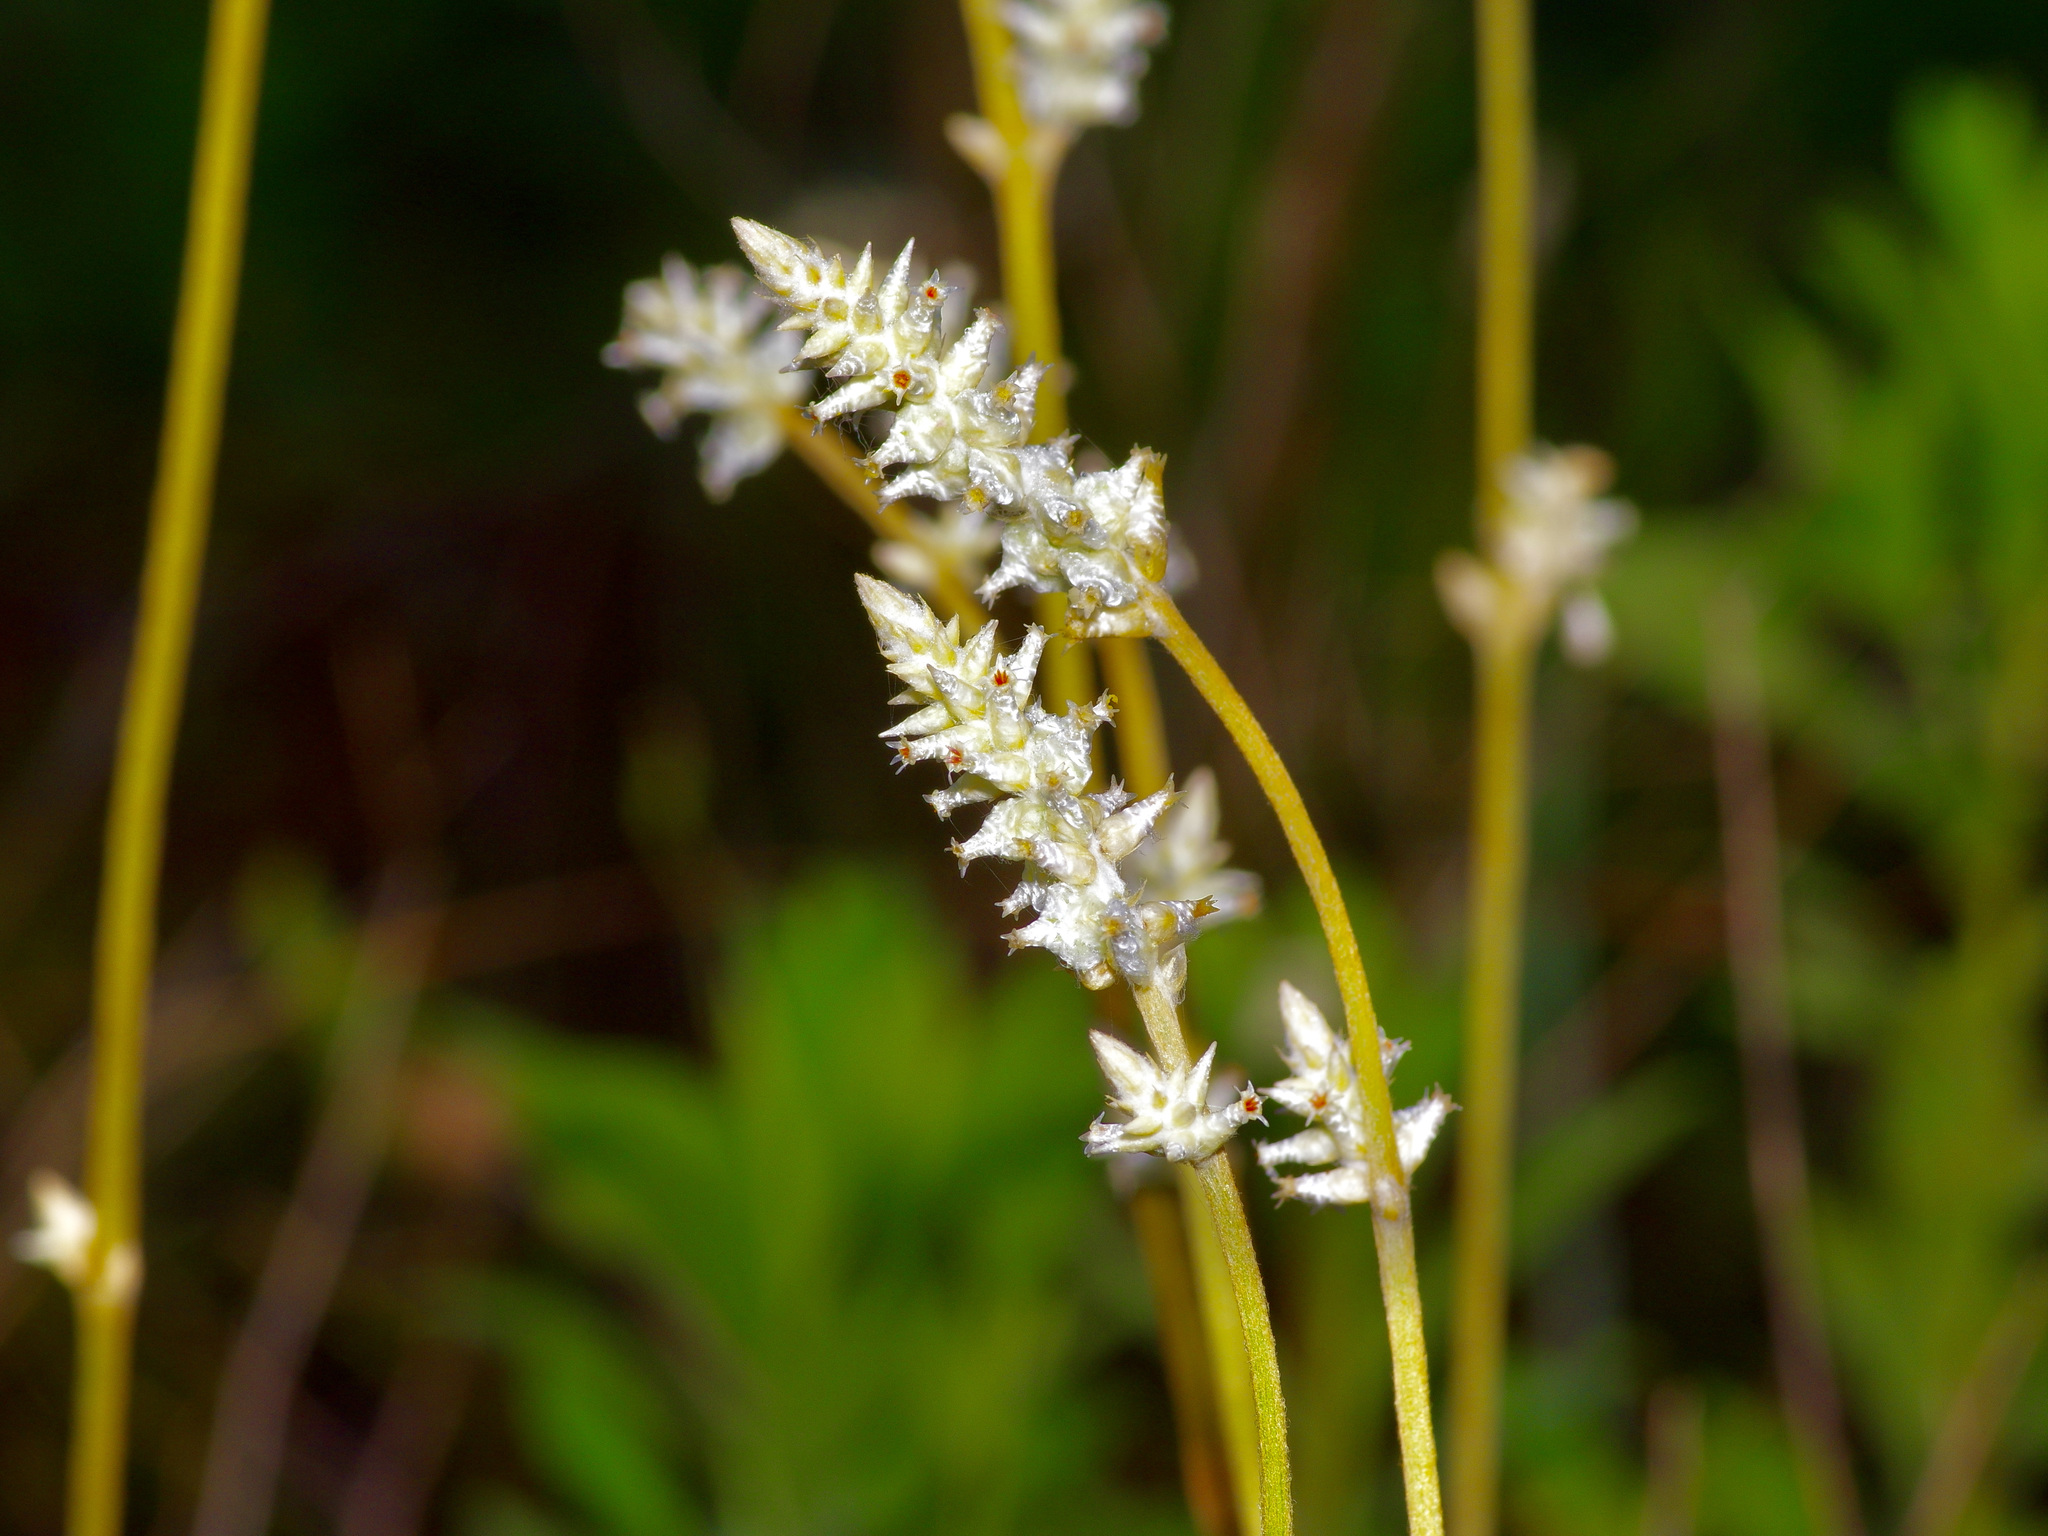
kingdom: Plantae
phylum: Tracheophyta
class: Magnoliopsida
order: Caryophyllales
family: Amaranthaceae
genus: Froelichia
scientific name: Froelichia floridana
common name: Florida snake-cotton
